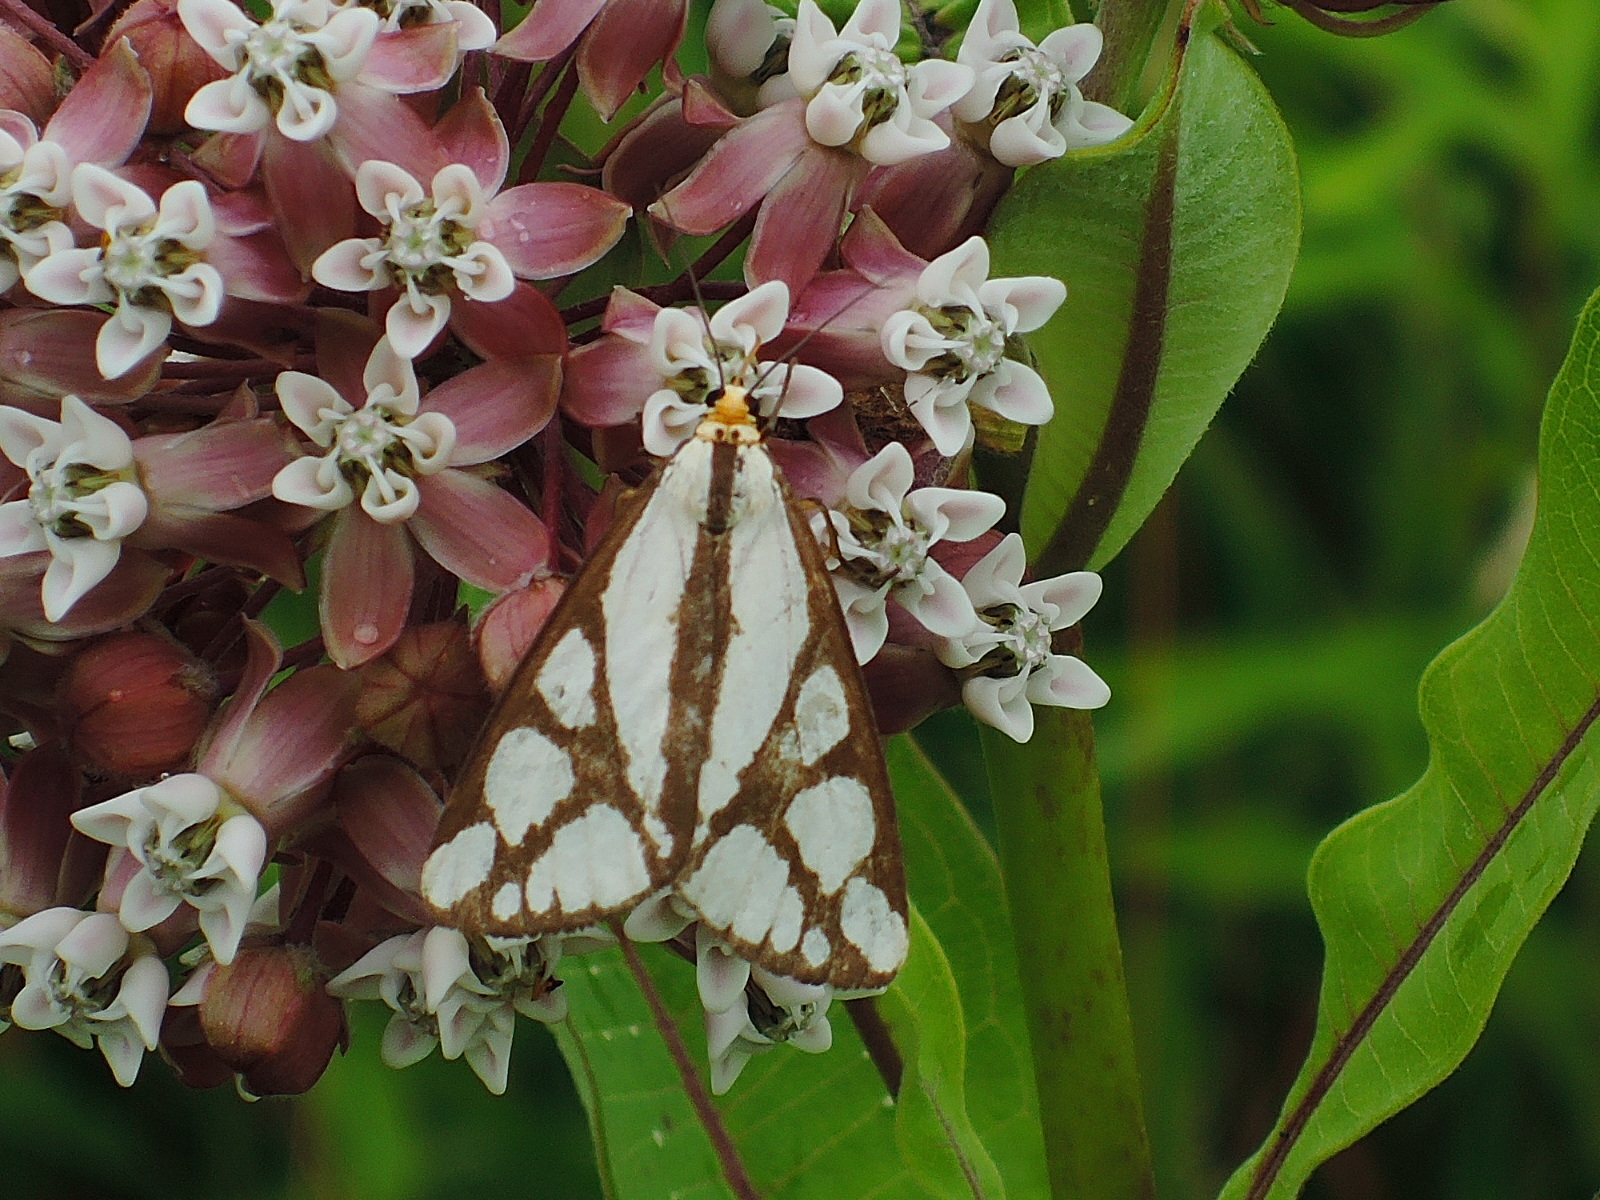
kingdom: Animalia
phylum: Arthropoda
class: Insecta
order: Lepidoptera
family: Erebidae
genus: Haploa
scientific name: Haploa reversa
